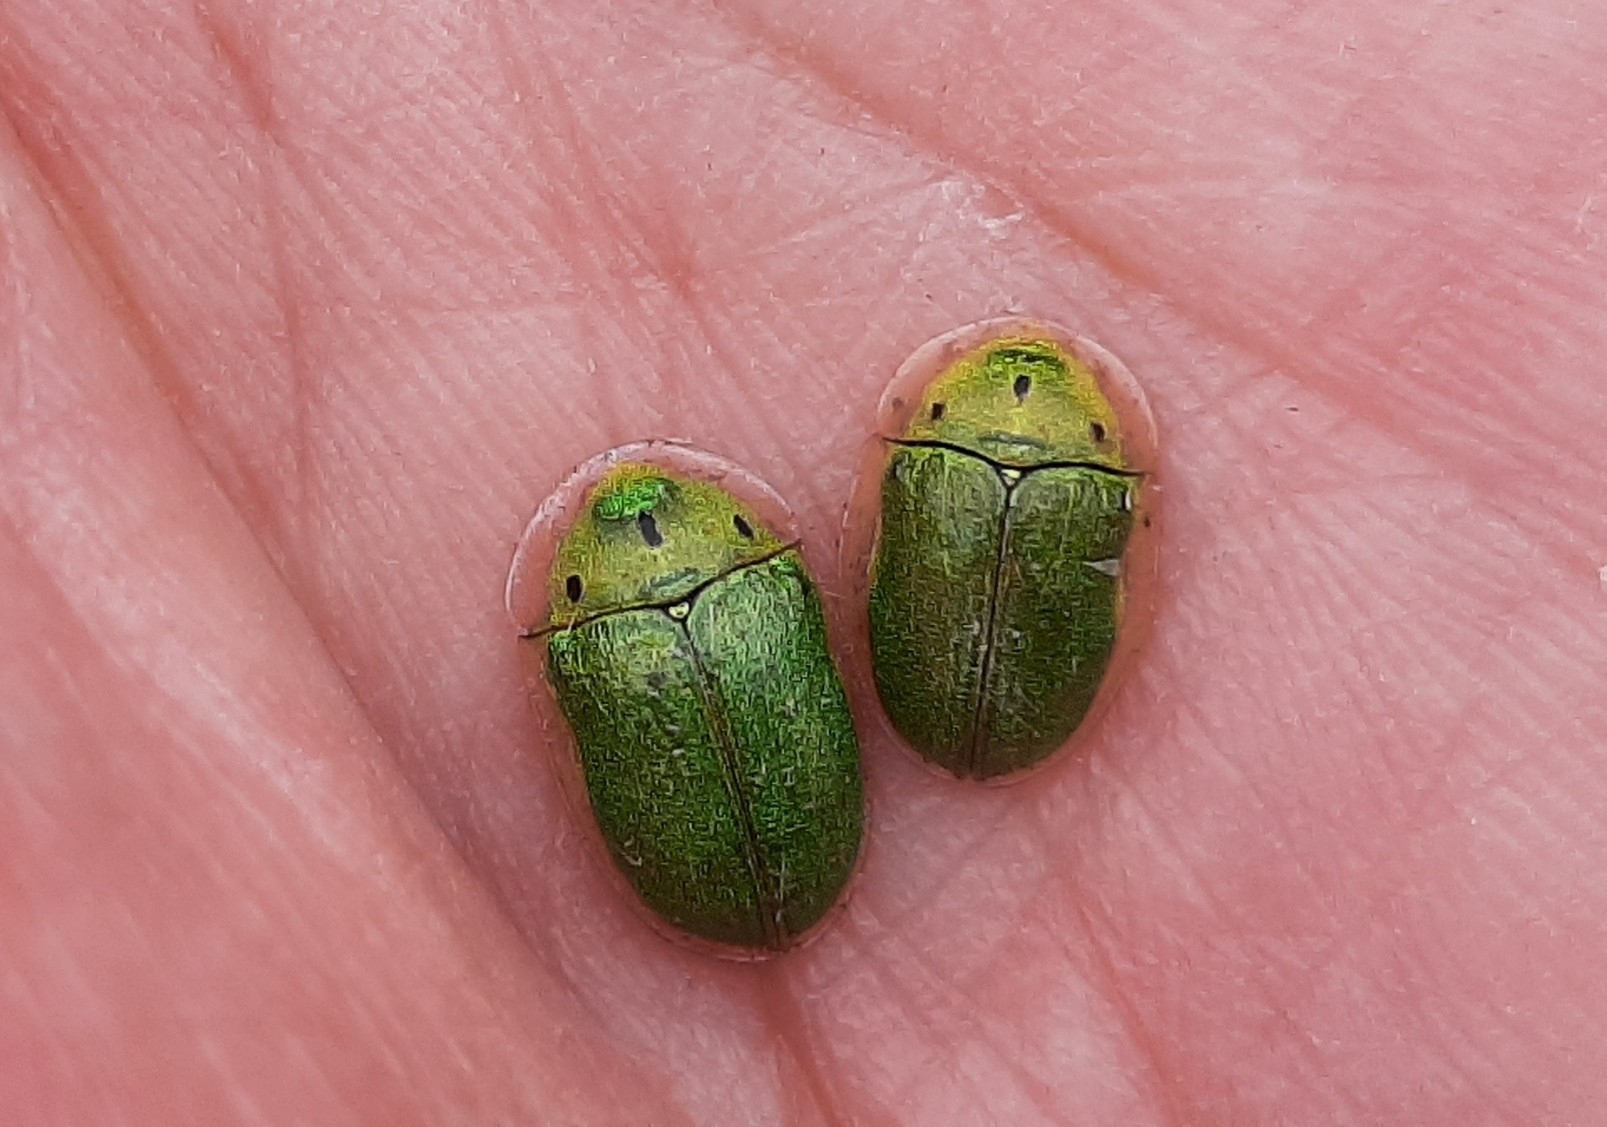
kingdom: Animalia
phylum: Arthropoda
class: Insecta
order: Coleoptera
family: Chrysomelidae
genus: Physonota
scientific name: Physonota helianthi
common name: Sunflower tortoise beetle
